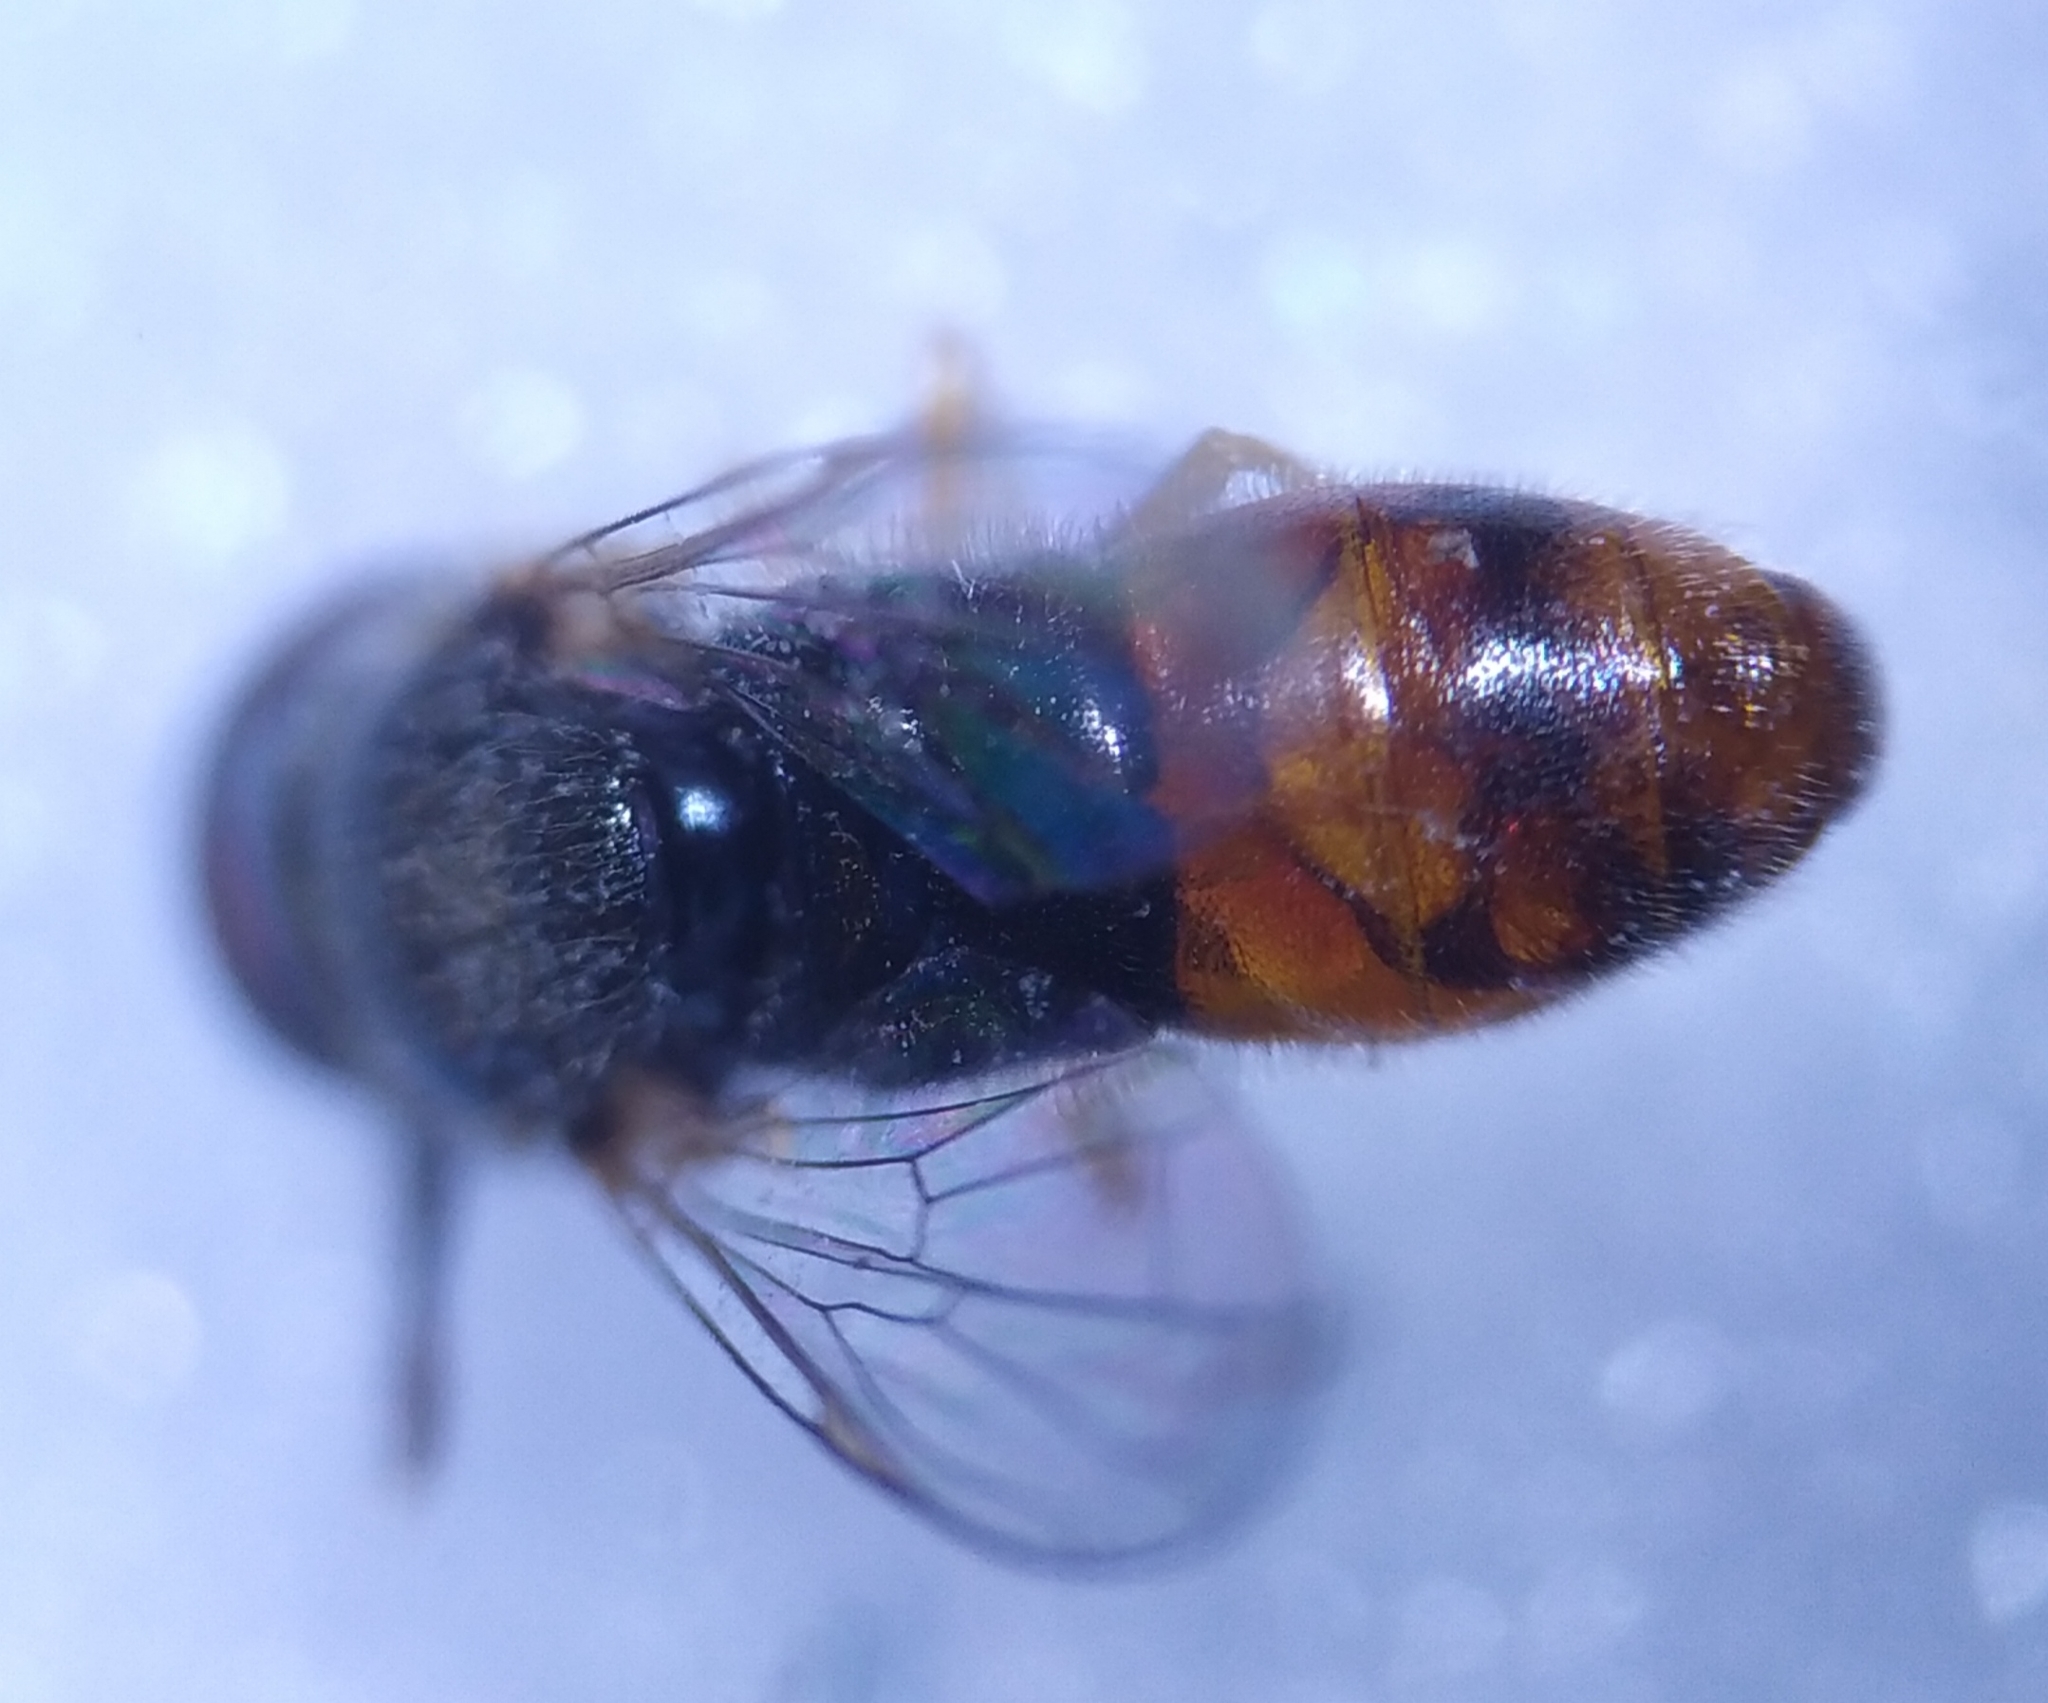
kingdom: Animalia
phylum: Arthropoda
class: Insecta
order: Diptera
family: Syrphidae
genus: Paragus
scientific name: Paragus tibialis
